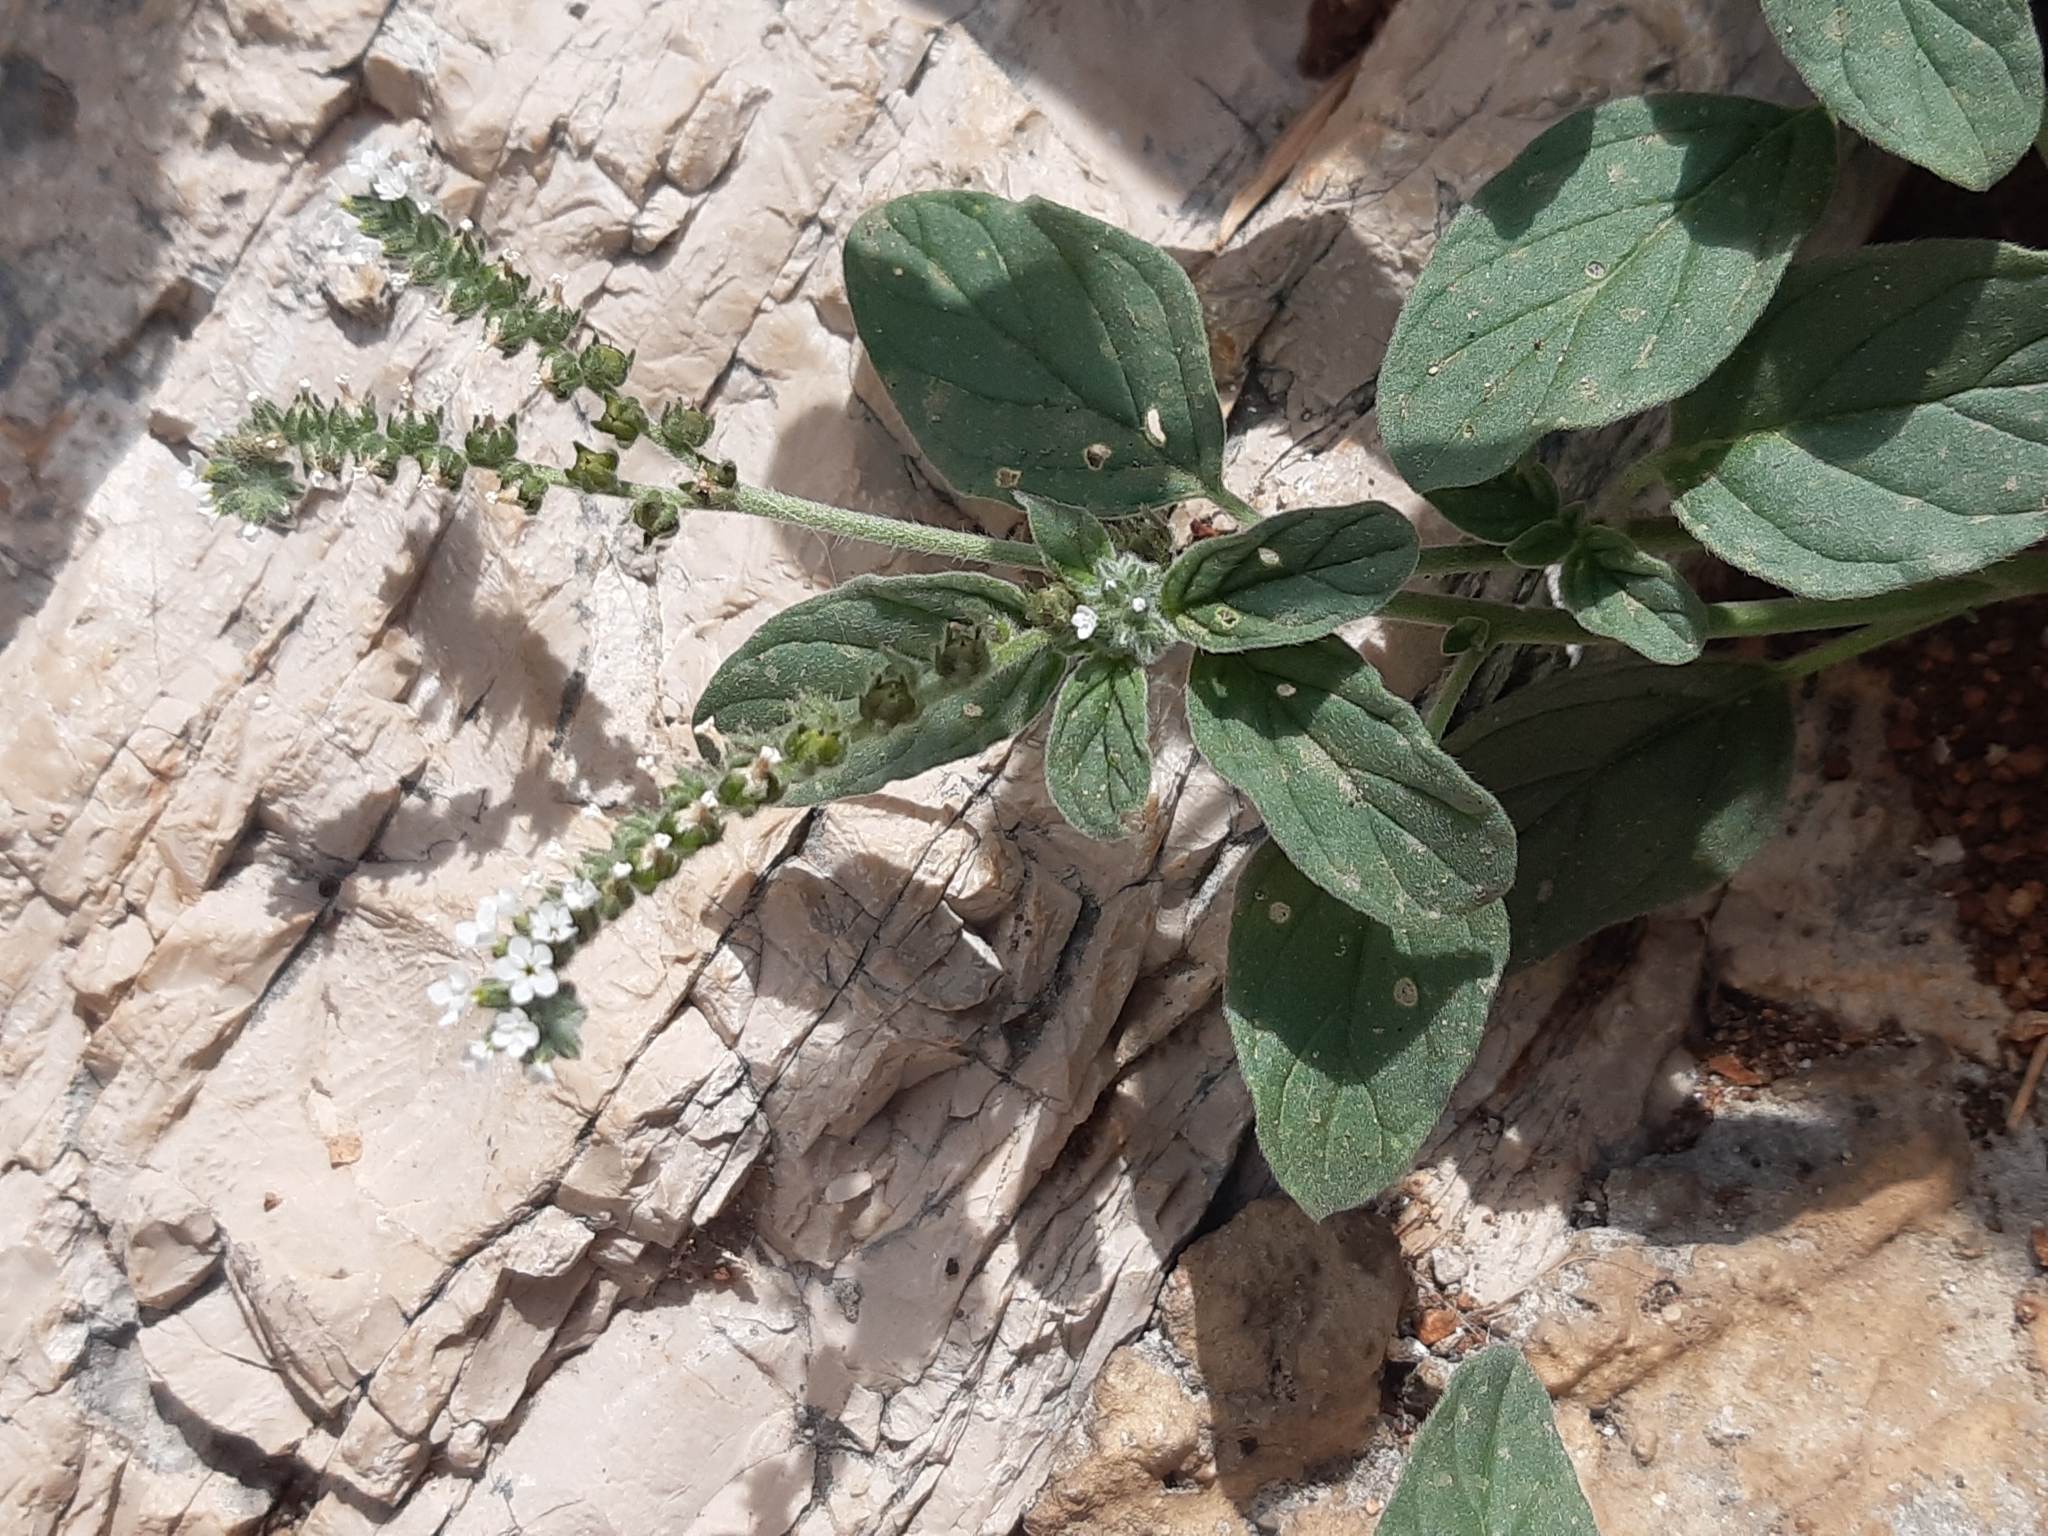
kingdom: Plantae
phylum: Tracheophyta
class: Magnoliopsida
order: Boraginales
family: Heliotropiaceae
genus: Heliotropium
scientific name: Heliotropium europaeum
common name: European heliotrope
